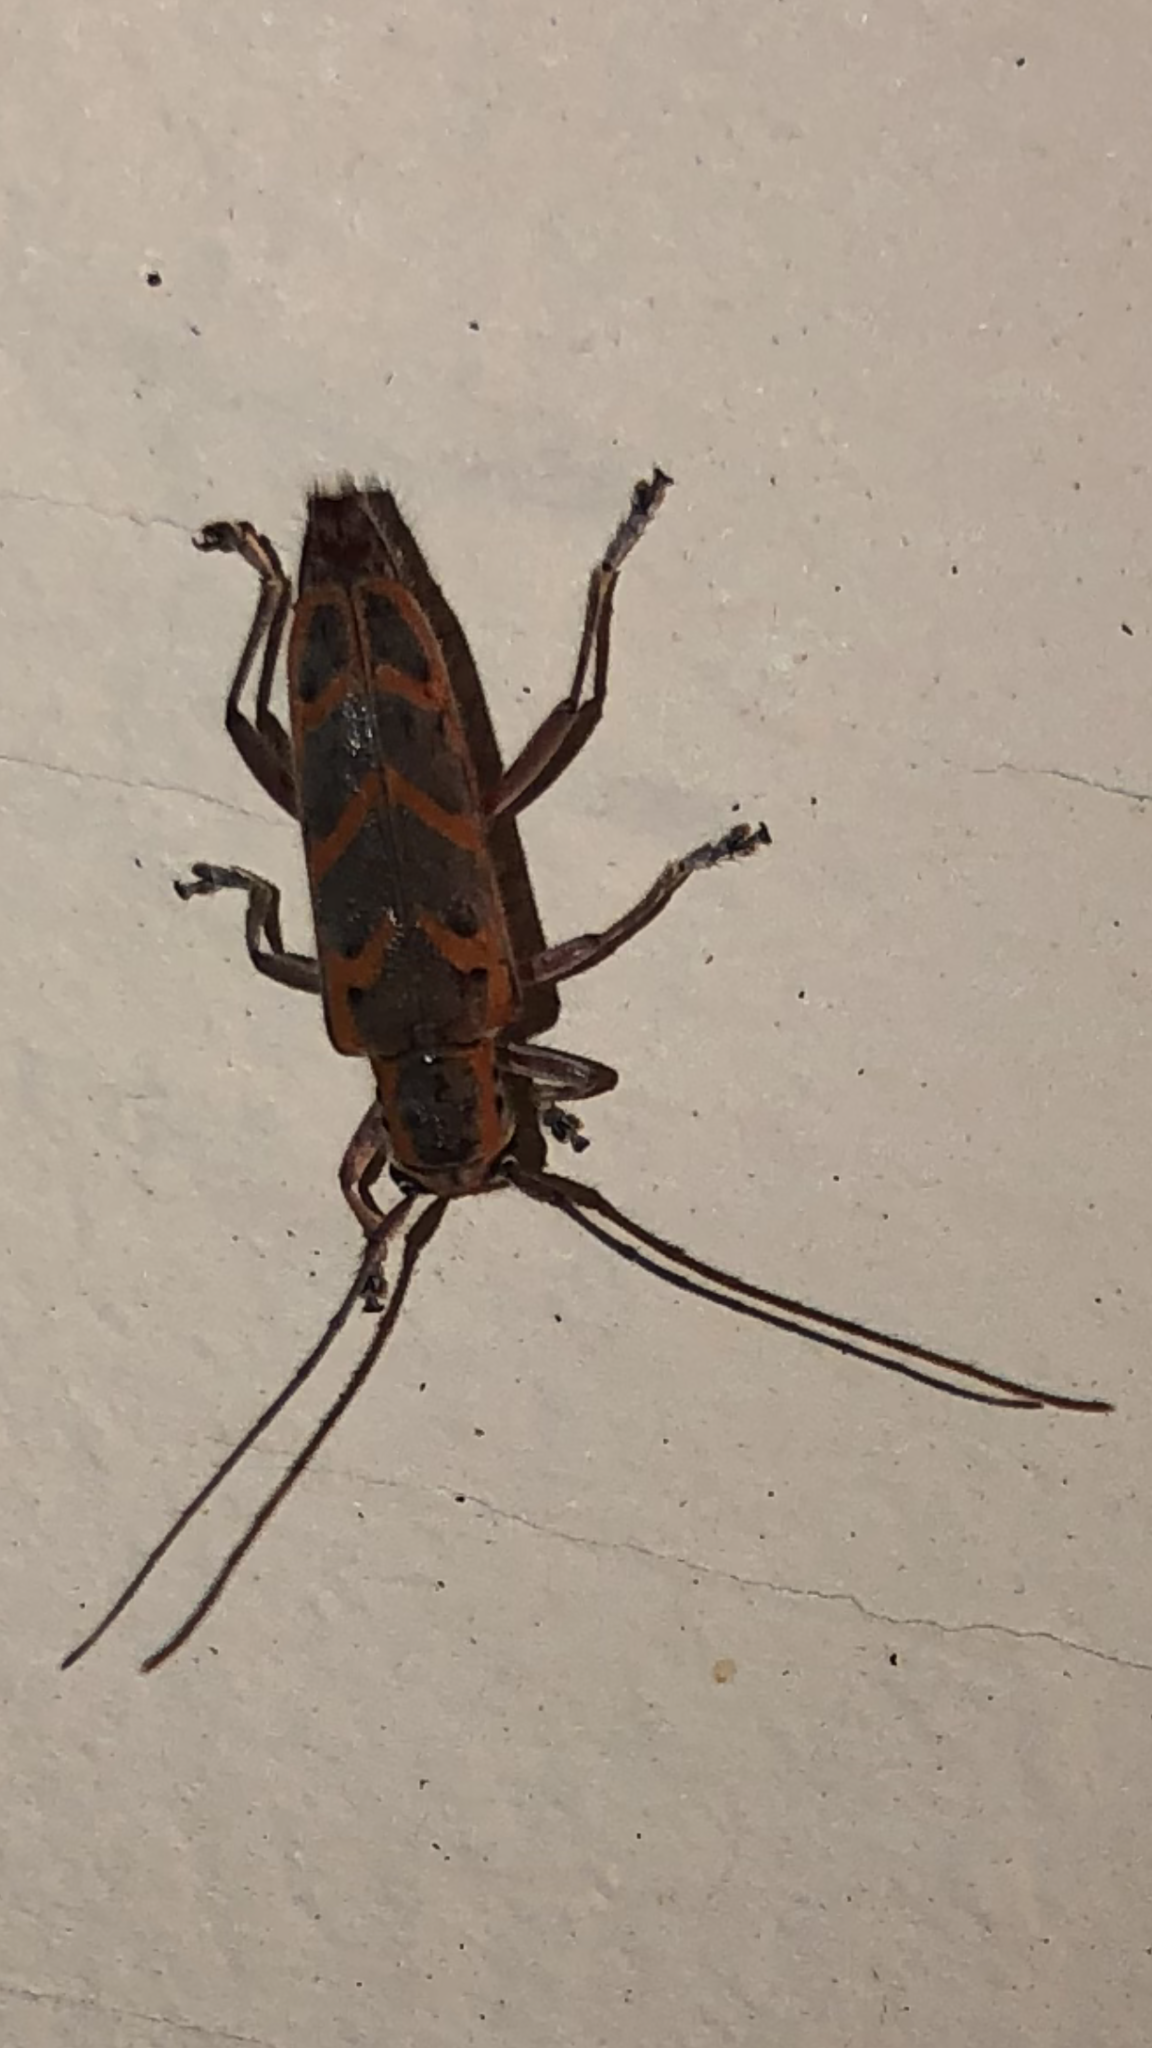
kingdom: Animalia
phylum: Arthropoda
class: Insecta
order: Coleoptera
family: Cerambycidae
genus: Saperda
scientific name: Saperda tridentata
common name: Elm borer
